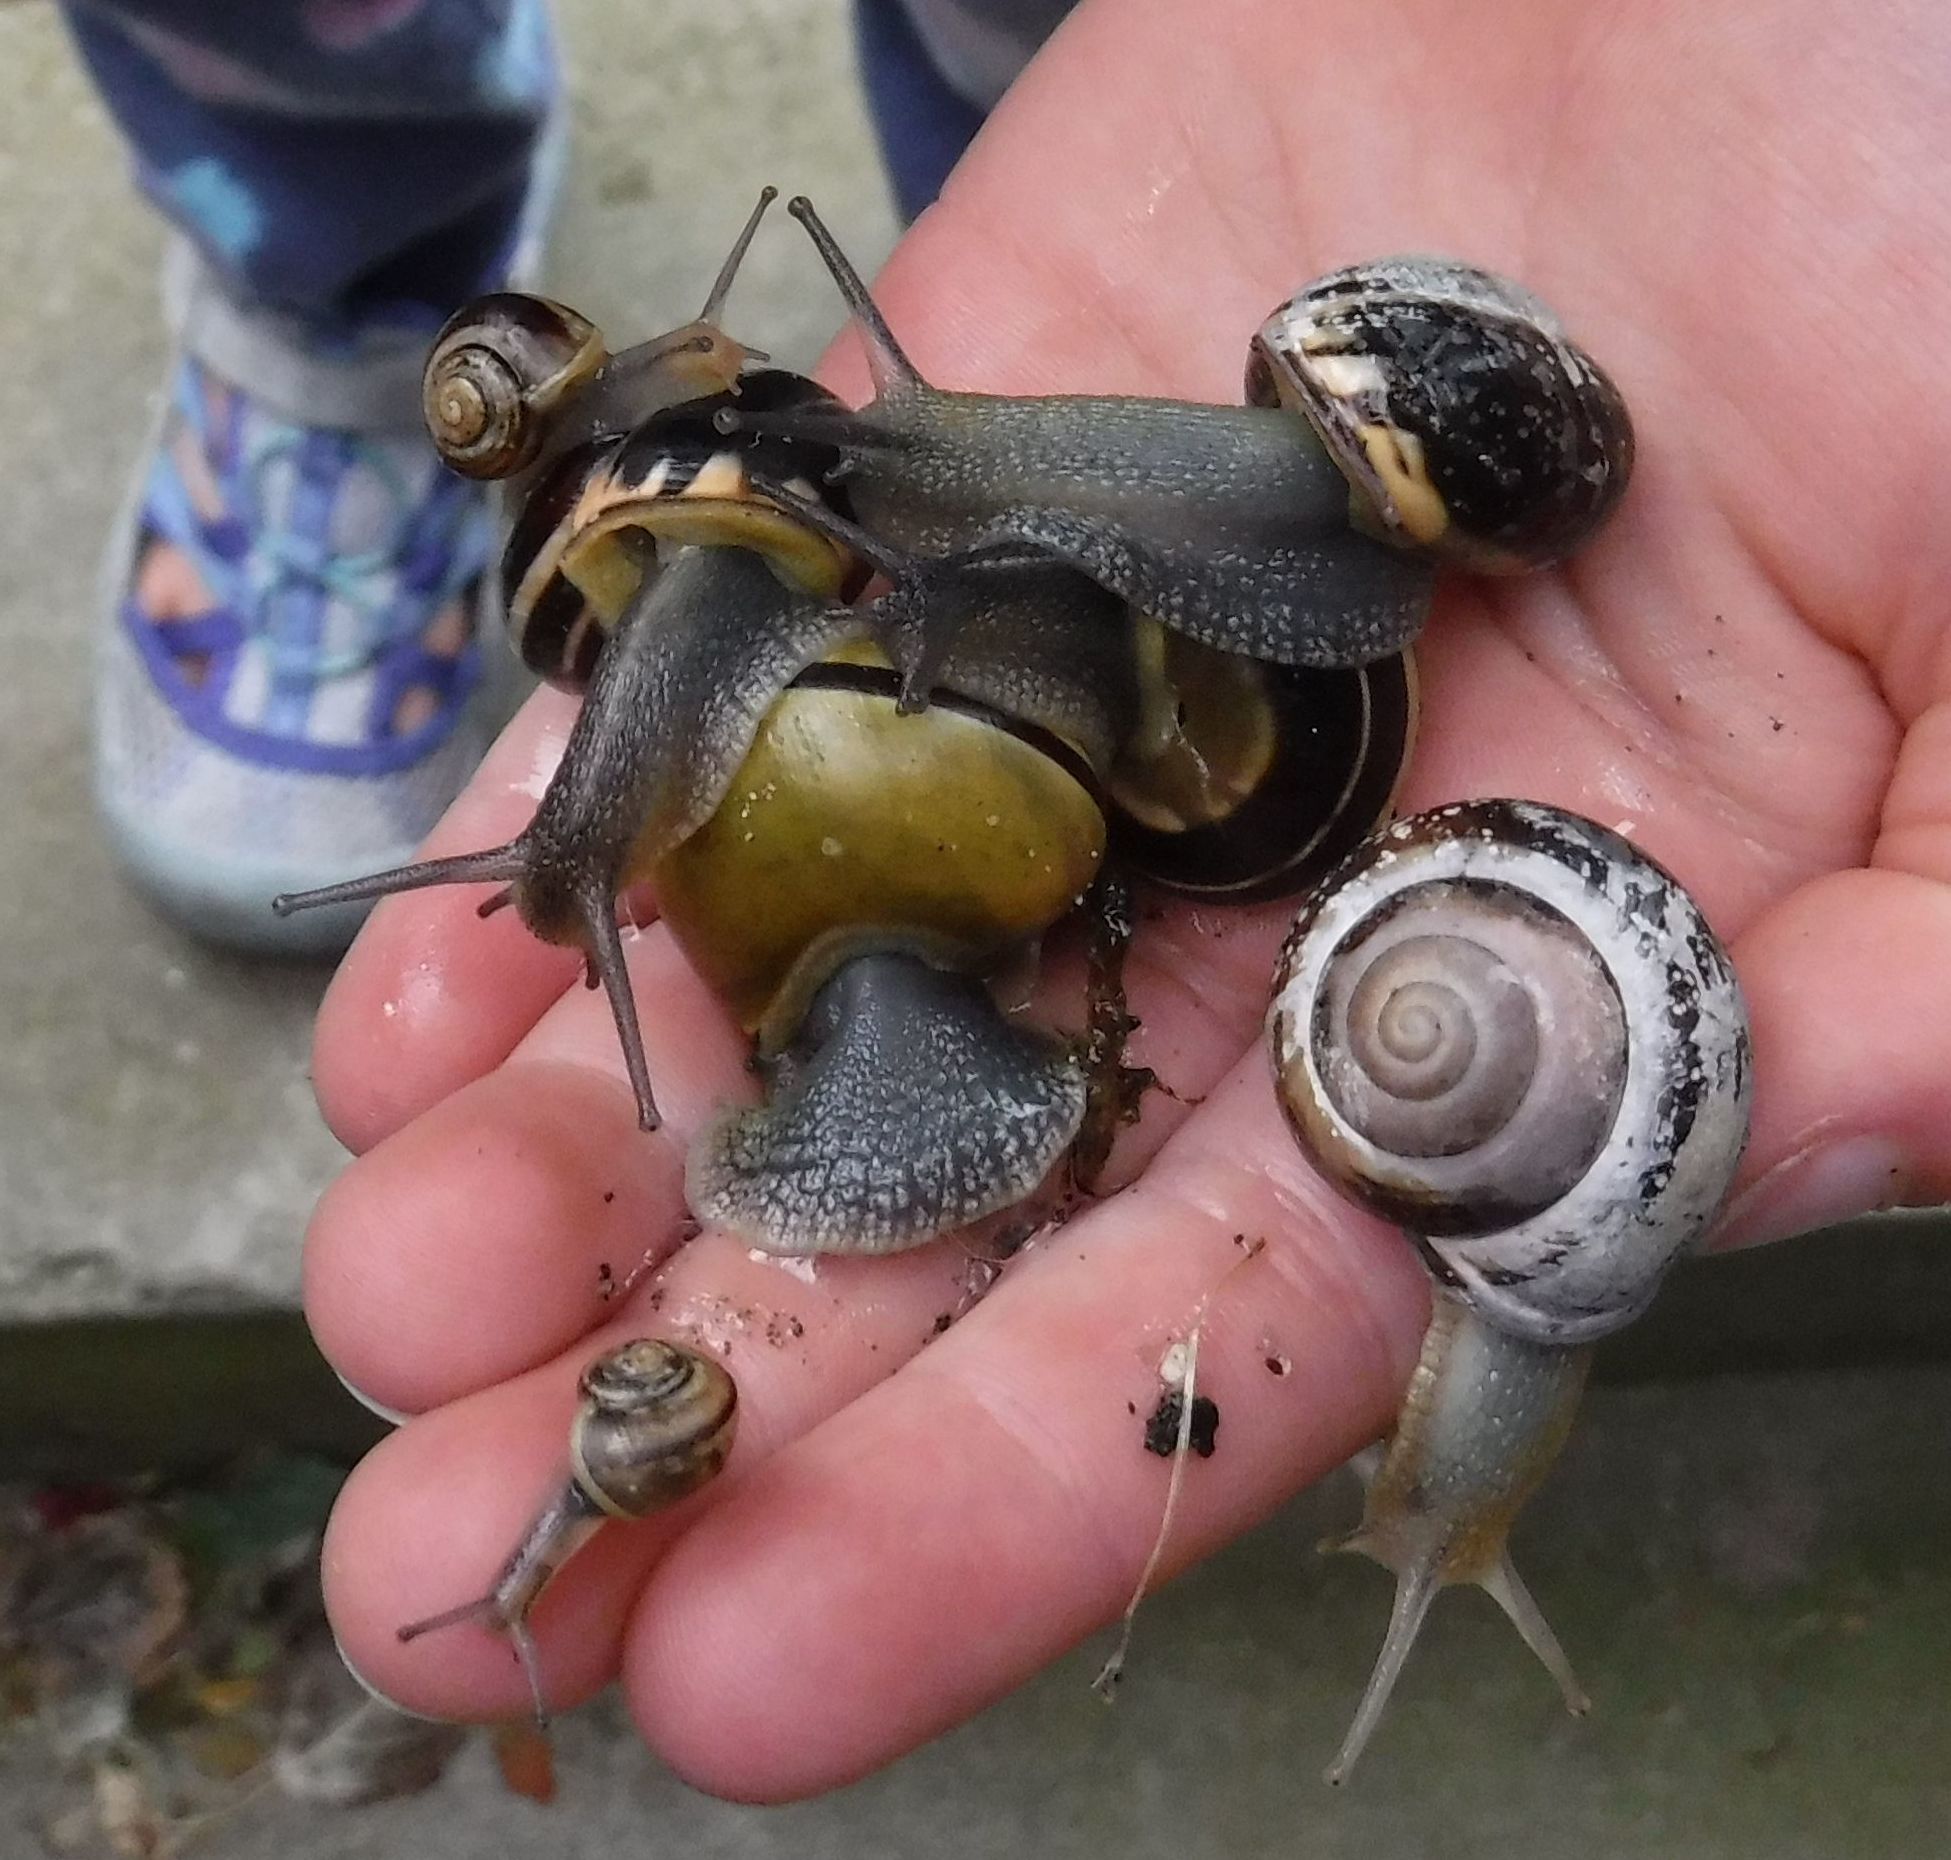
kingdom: Animalia
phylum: Mollusca
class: Gastropoda
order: Stylommatophora
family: Helicidae
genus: Cepaea
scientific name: Cepaea nemoralis
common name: Grovesnail
